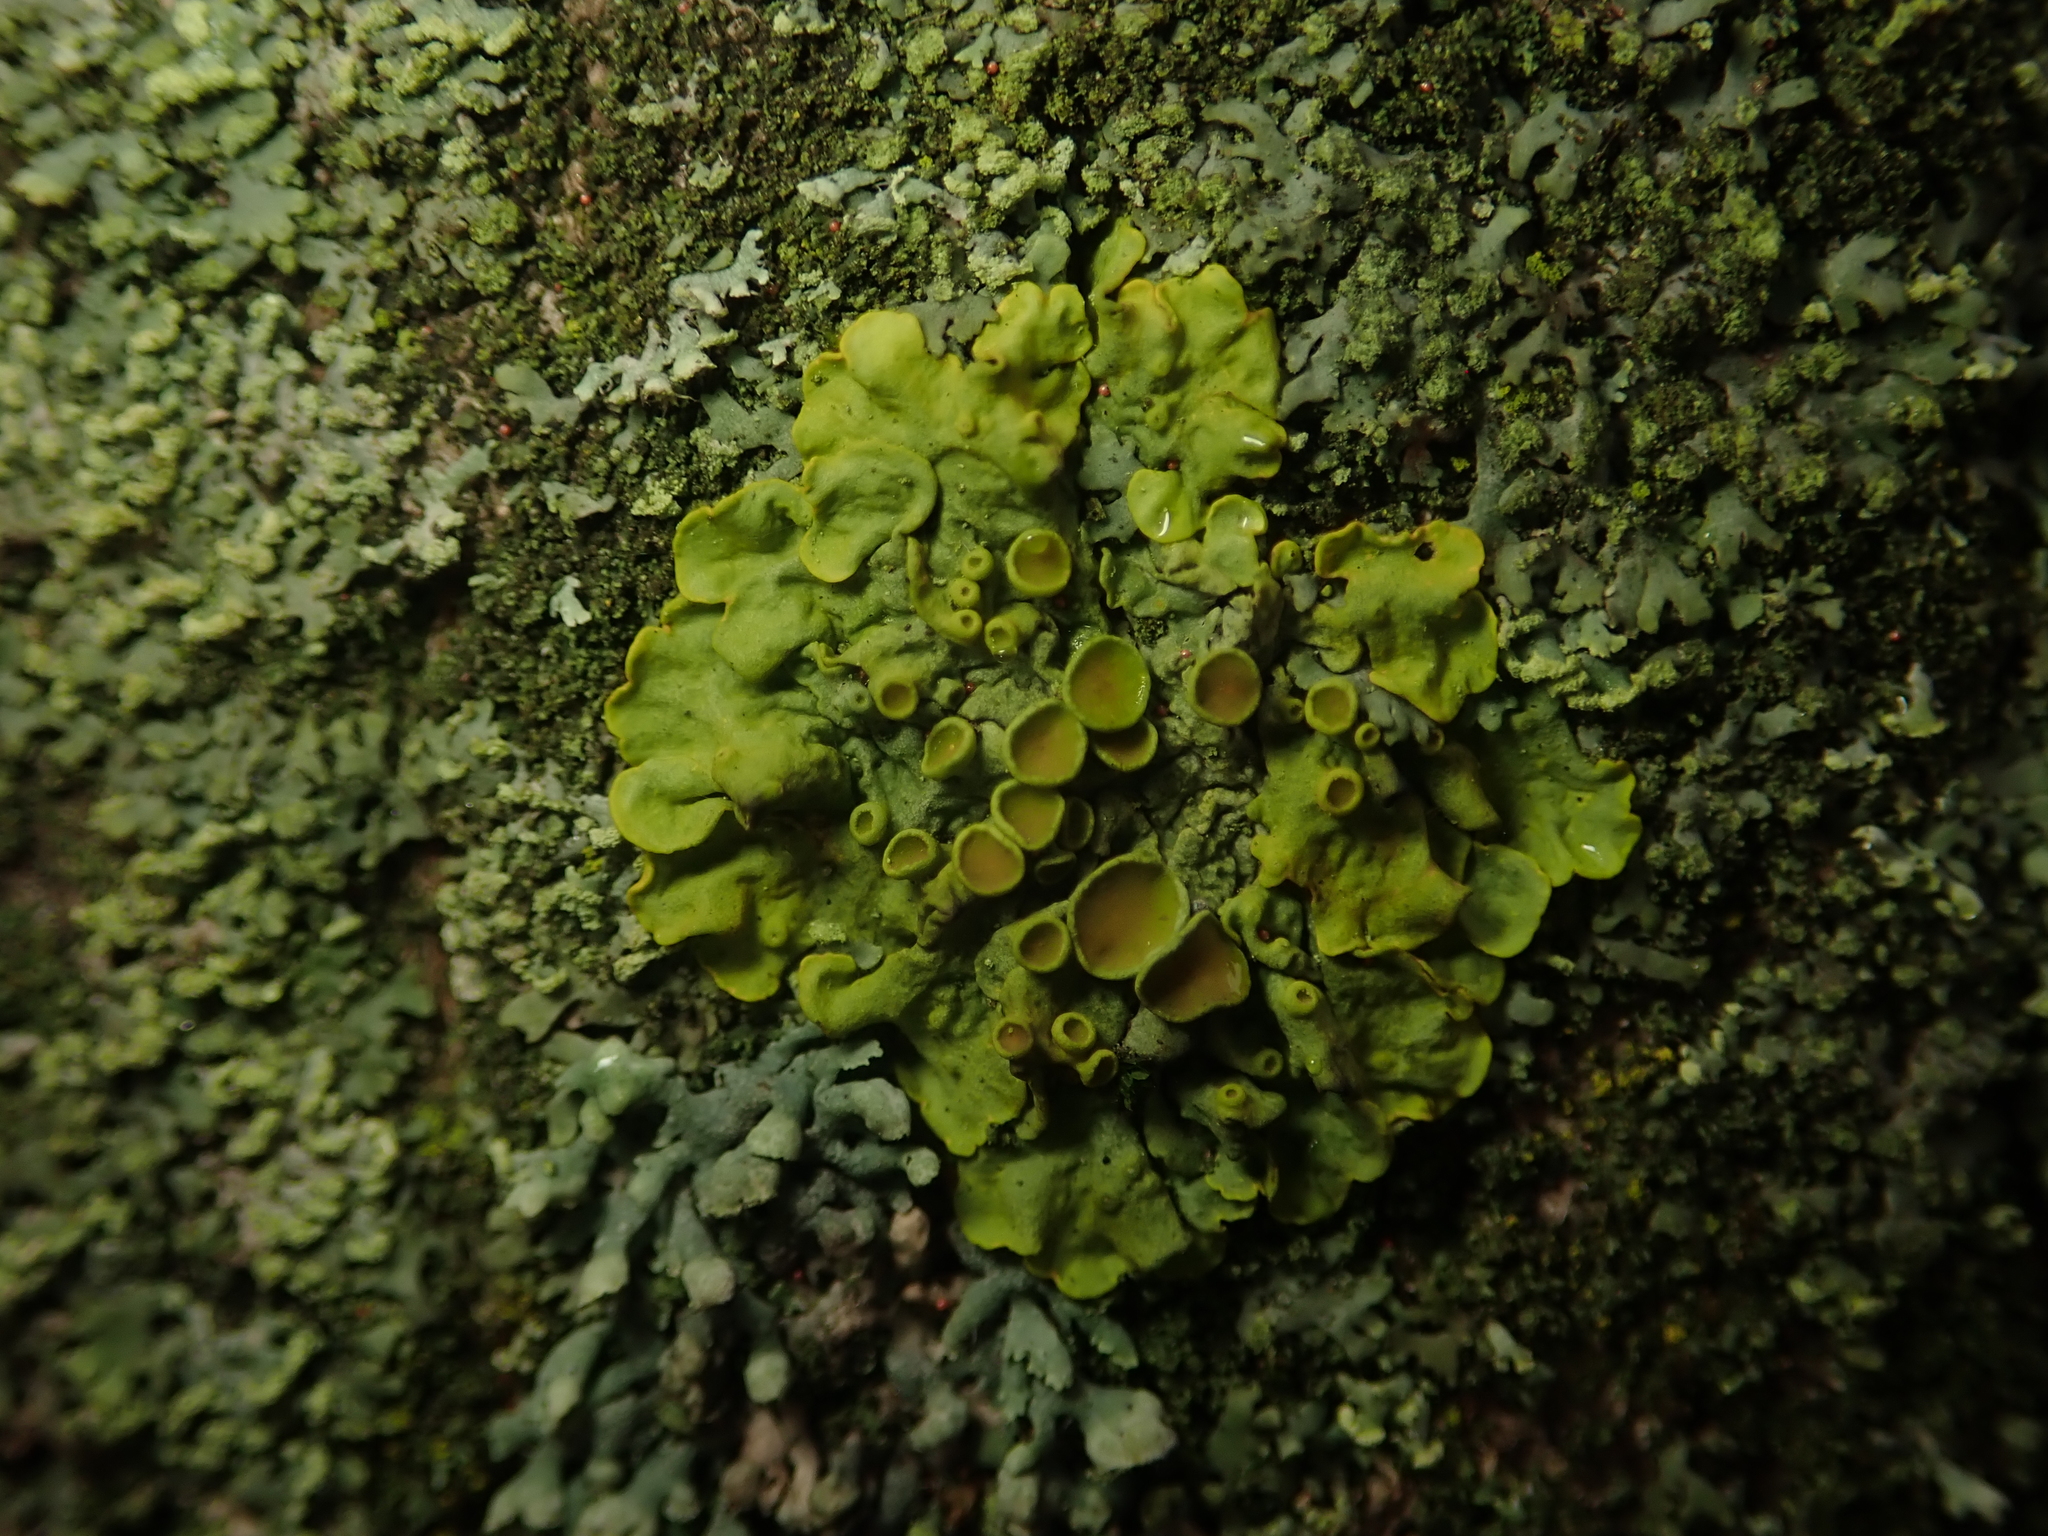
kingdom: Fungi
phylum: Ascomycota
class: Lecanoromycetes
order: Teloschistales
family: Teloschistaceae
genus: Xanthoria
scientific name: Xanthoria parietina
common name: Common orange lichen
